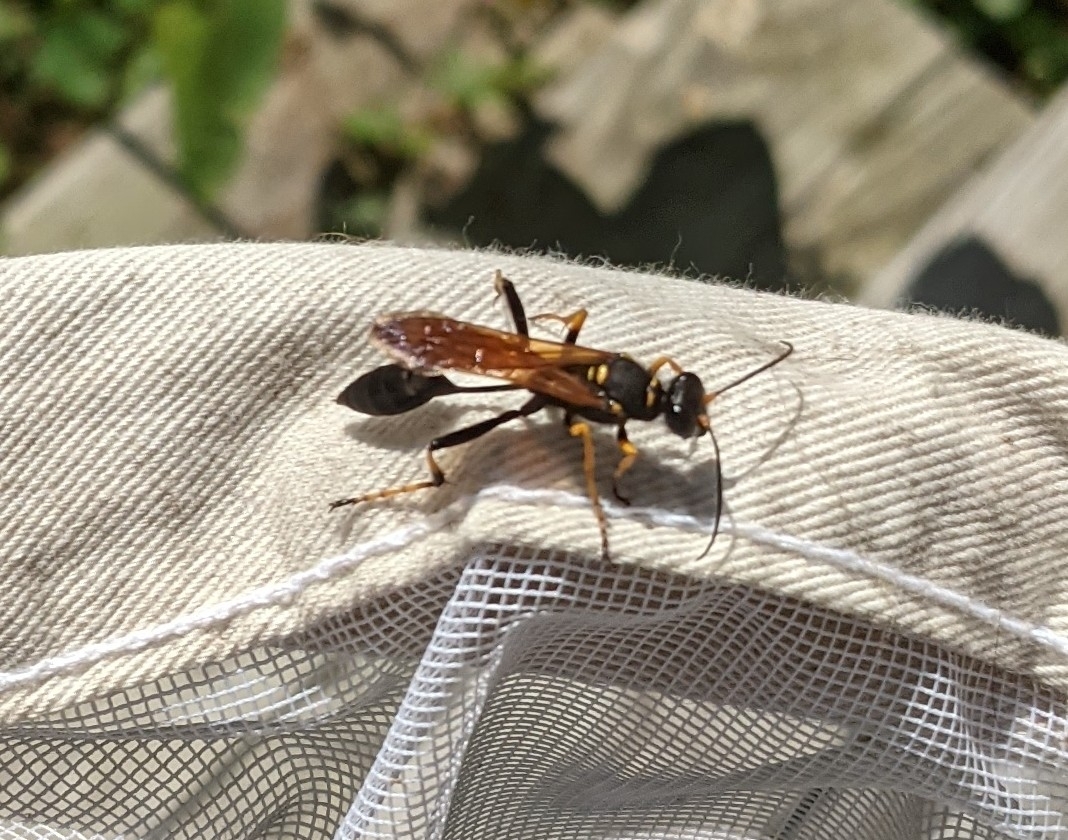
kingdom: Animalia
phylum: Arthropoda
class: Insecta
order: Hymenoptera
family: Sphecidae
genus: Sceliphron
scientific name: Sceliphron caementarium
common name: Mud dauber
